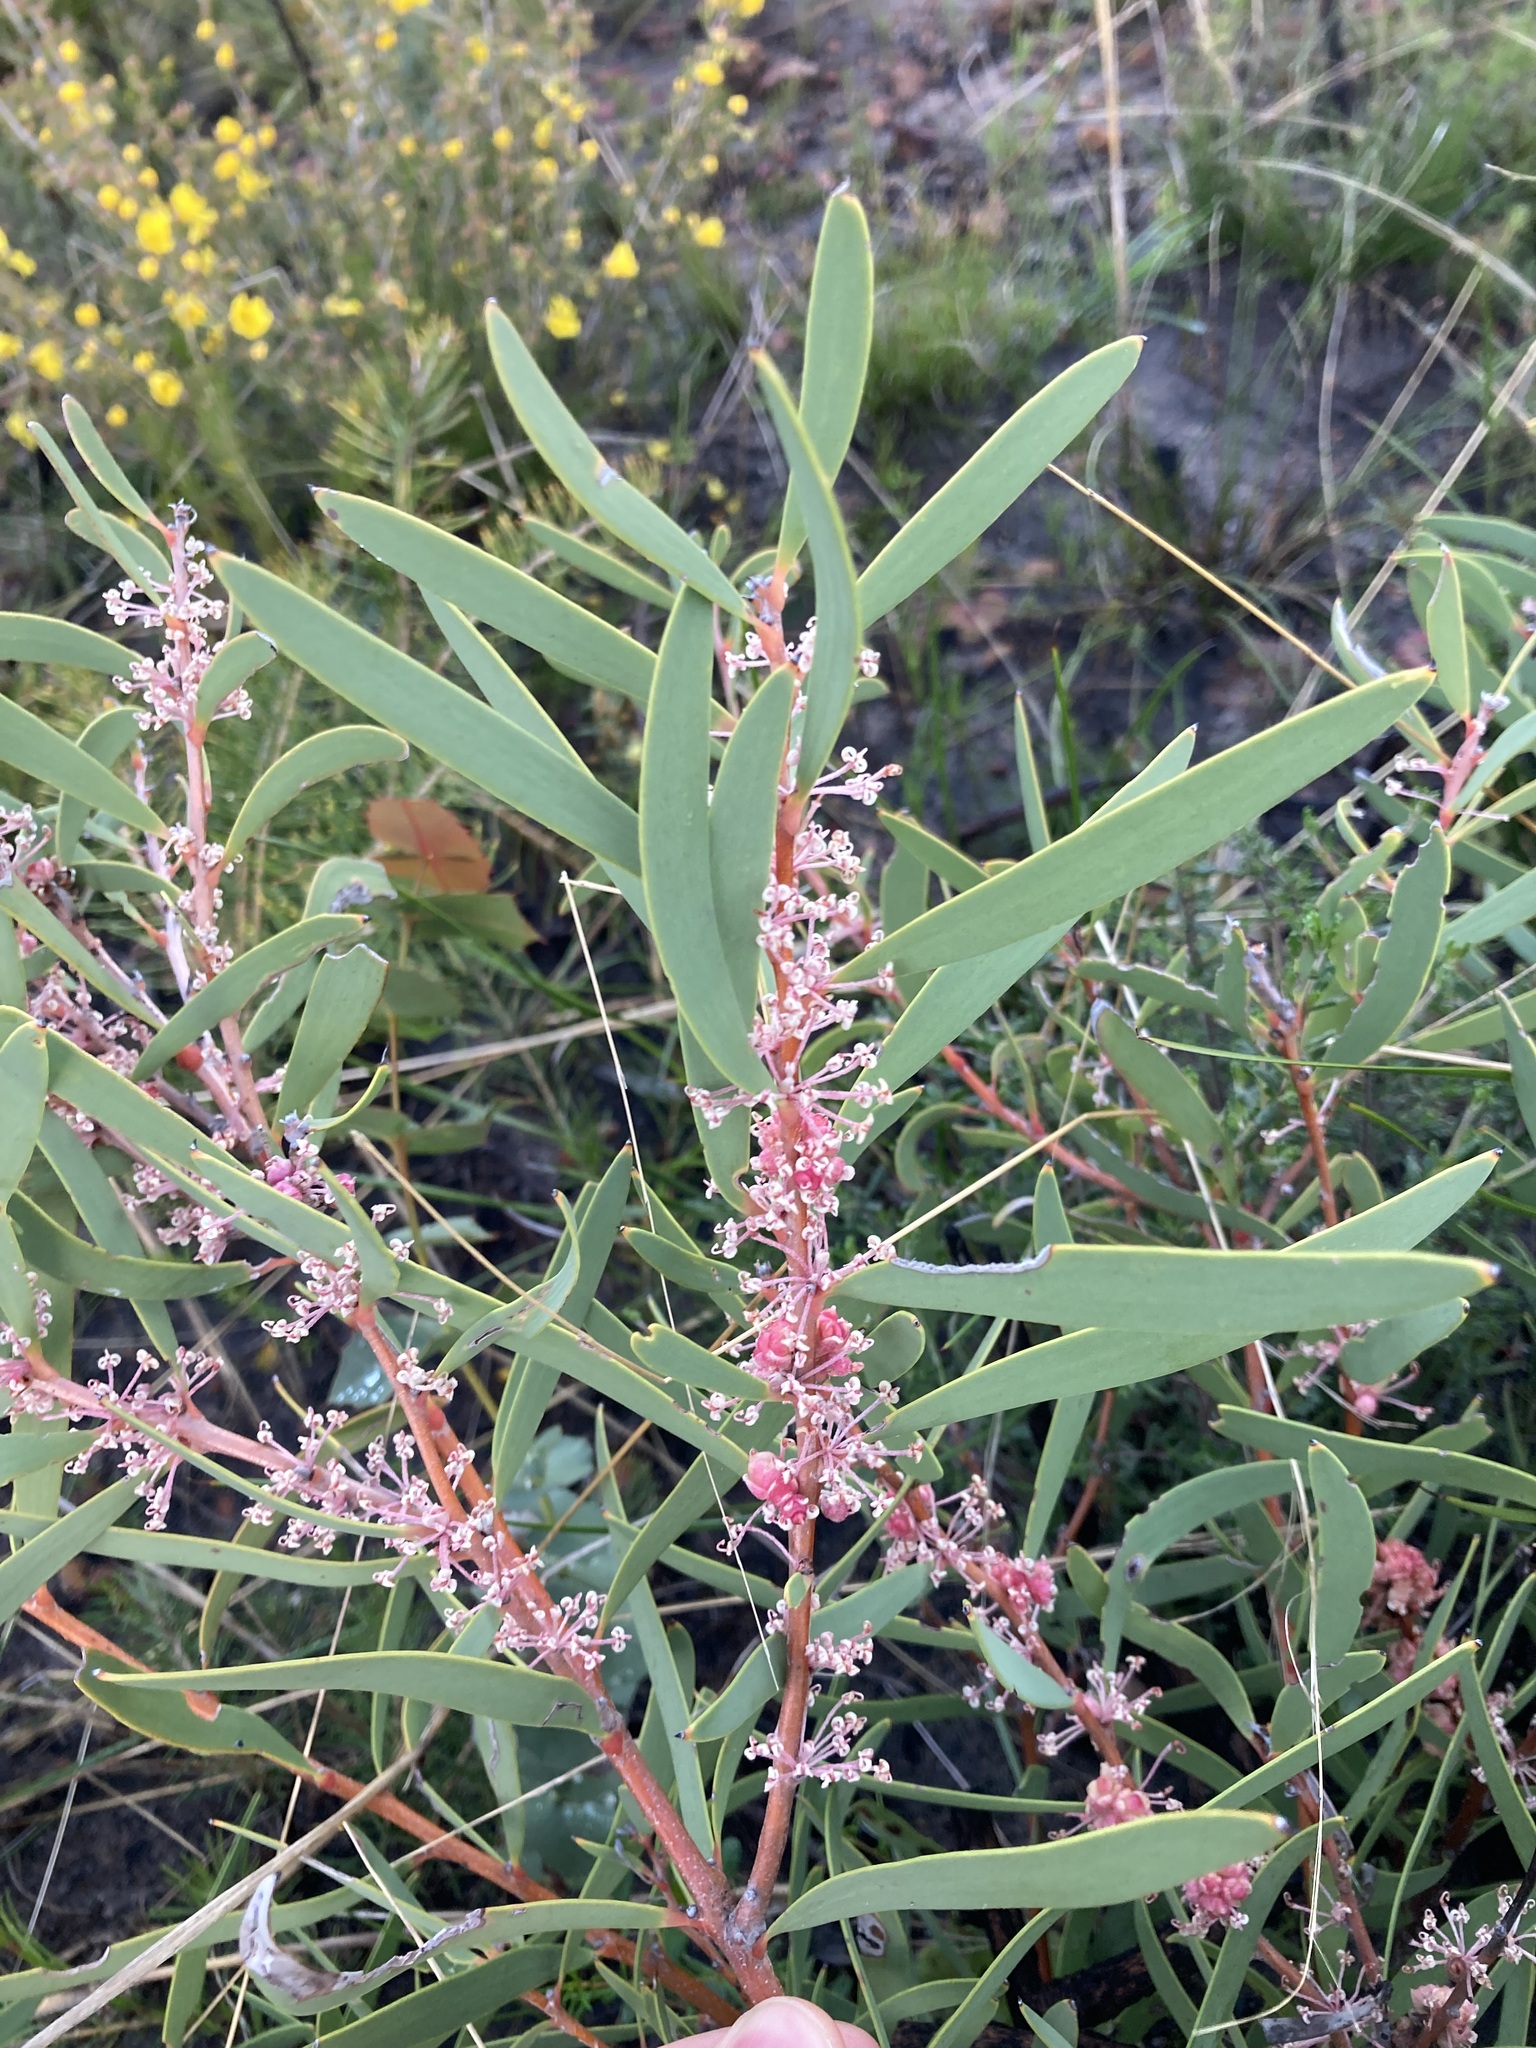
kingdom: Plantae
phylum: Tracheophyta
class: Magnoliopsida
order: Proteales
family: Proteaceae
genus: Hakea
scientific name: Hakea incrassata
